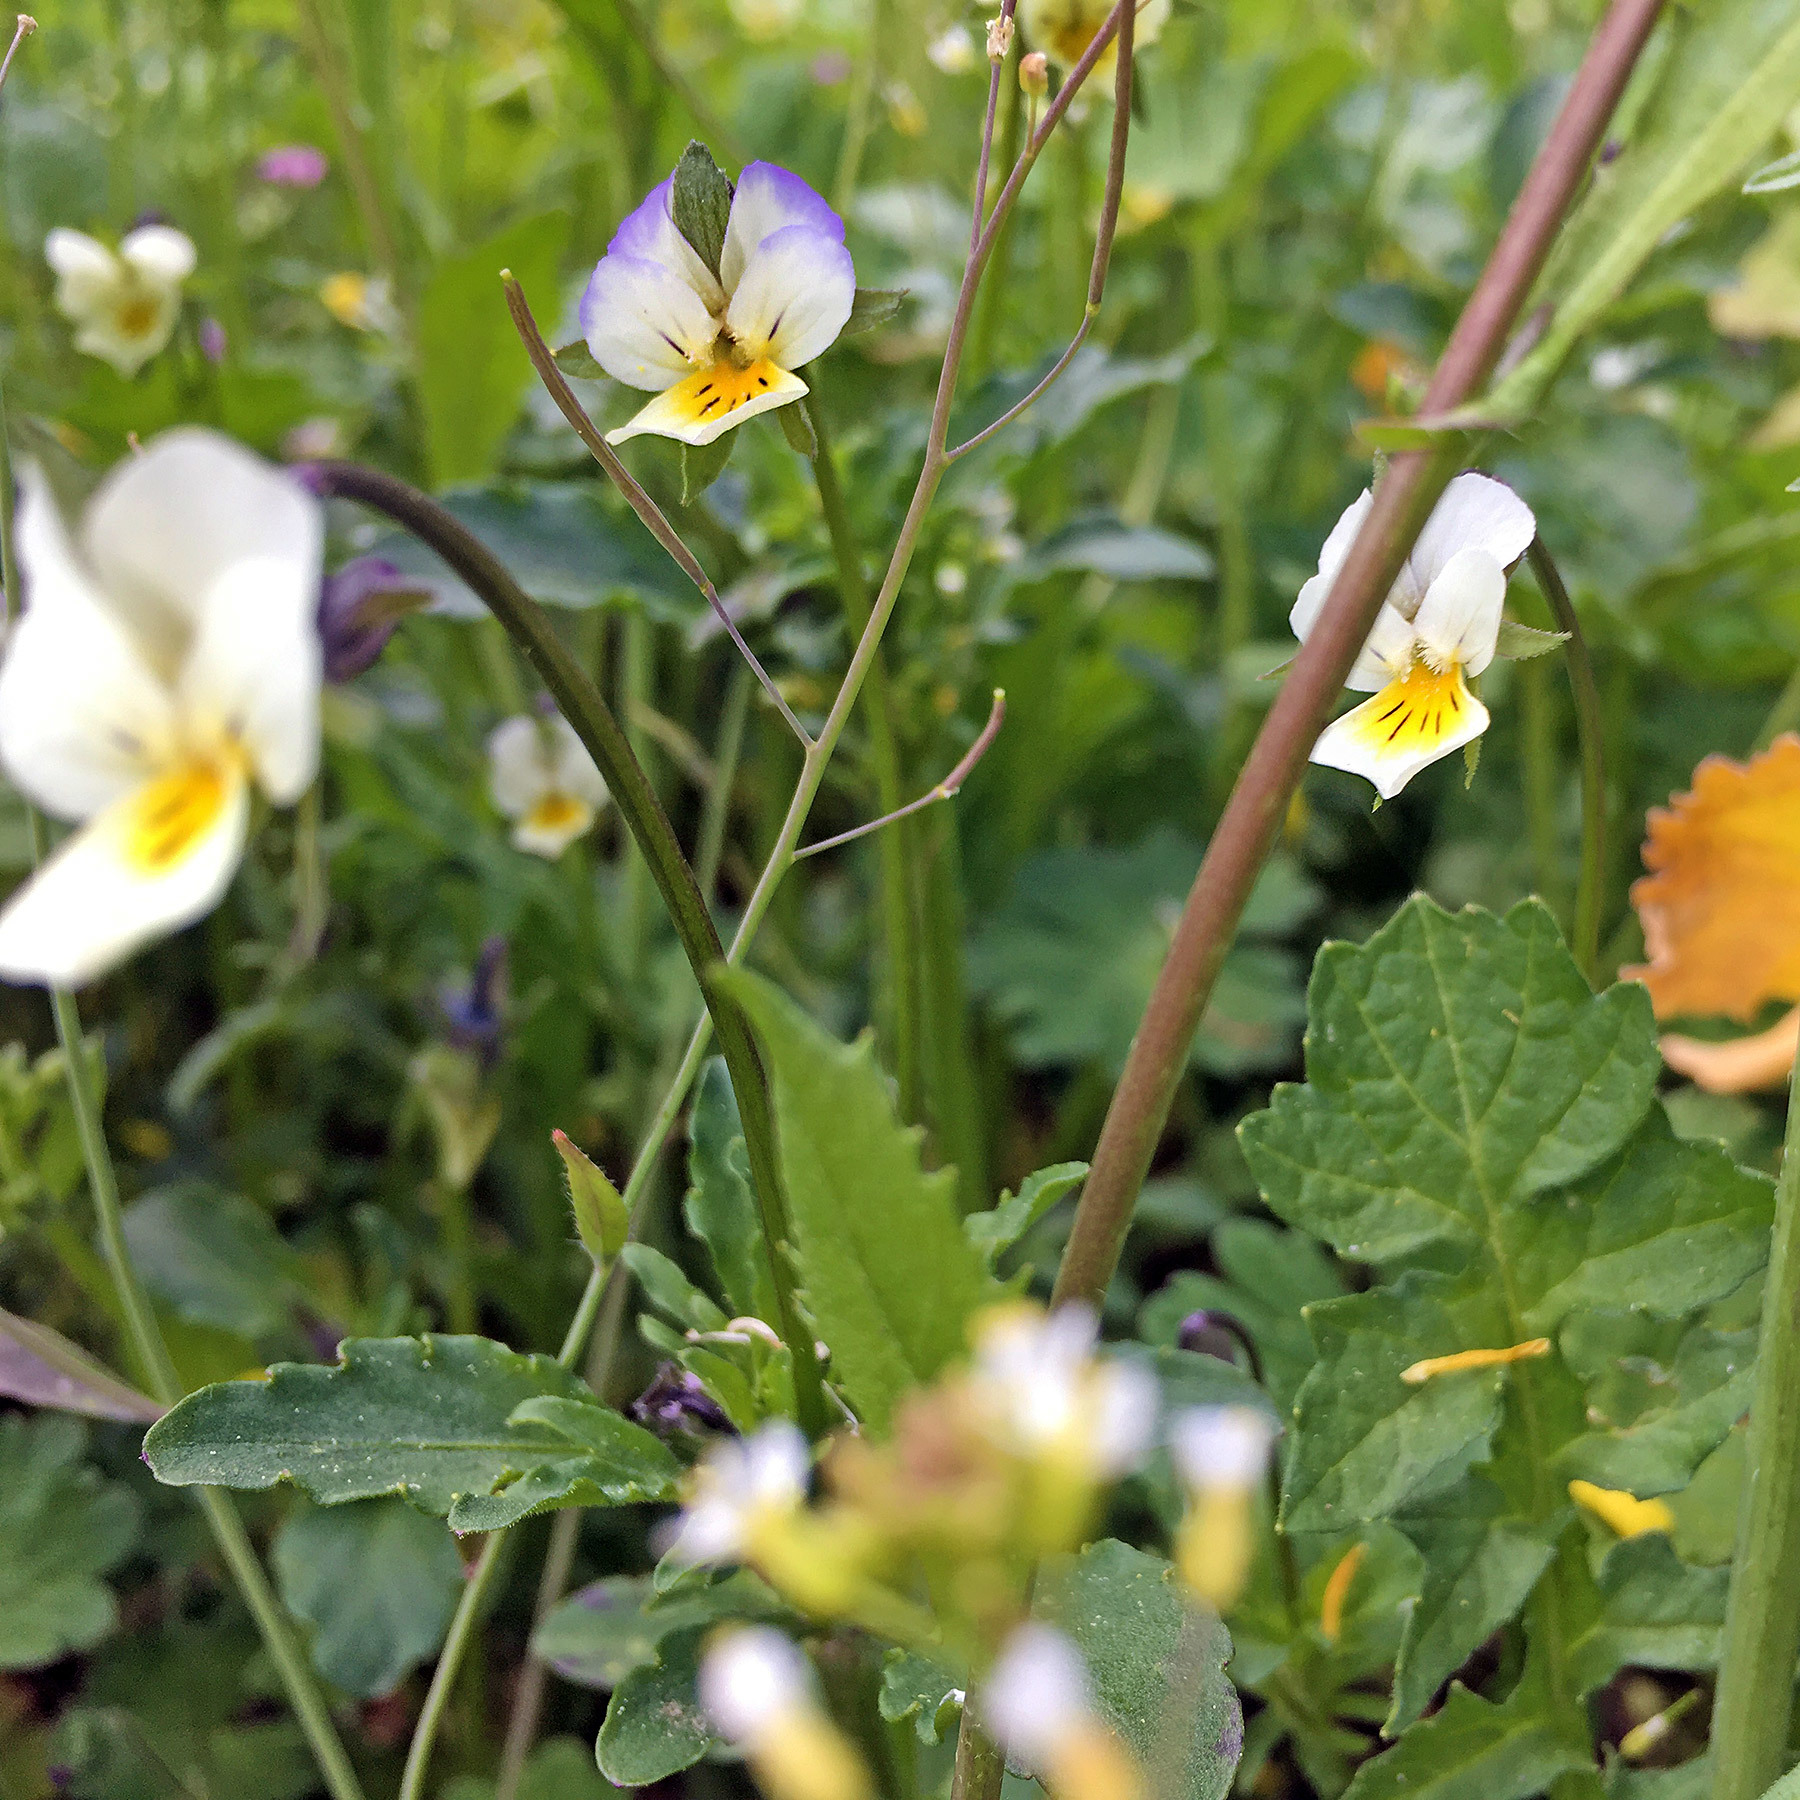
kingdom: Plantae
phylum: Tracheophyta
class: Magnoliopsida
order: Malpighiales
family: Violaceae
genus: Viola
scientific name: Viola arvensis
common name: Field pansy
